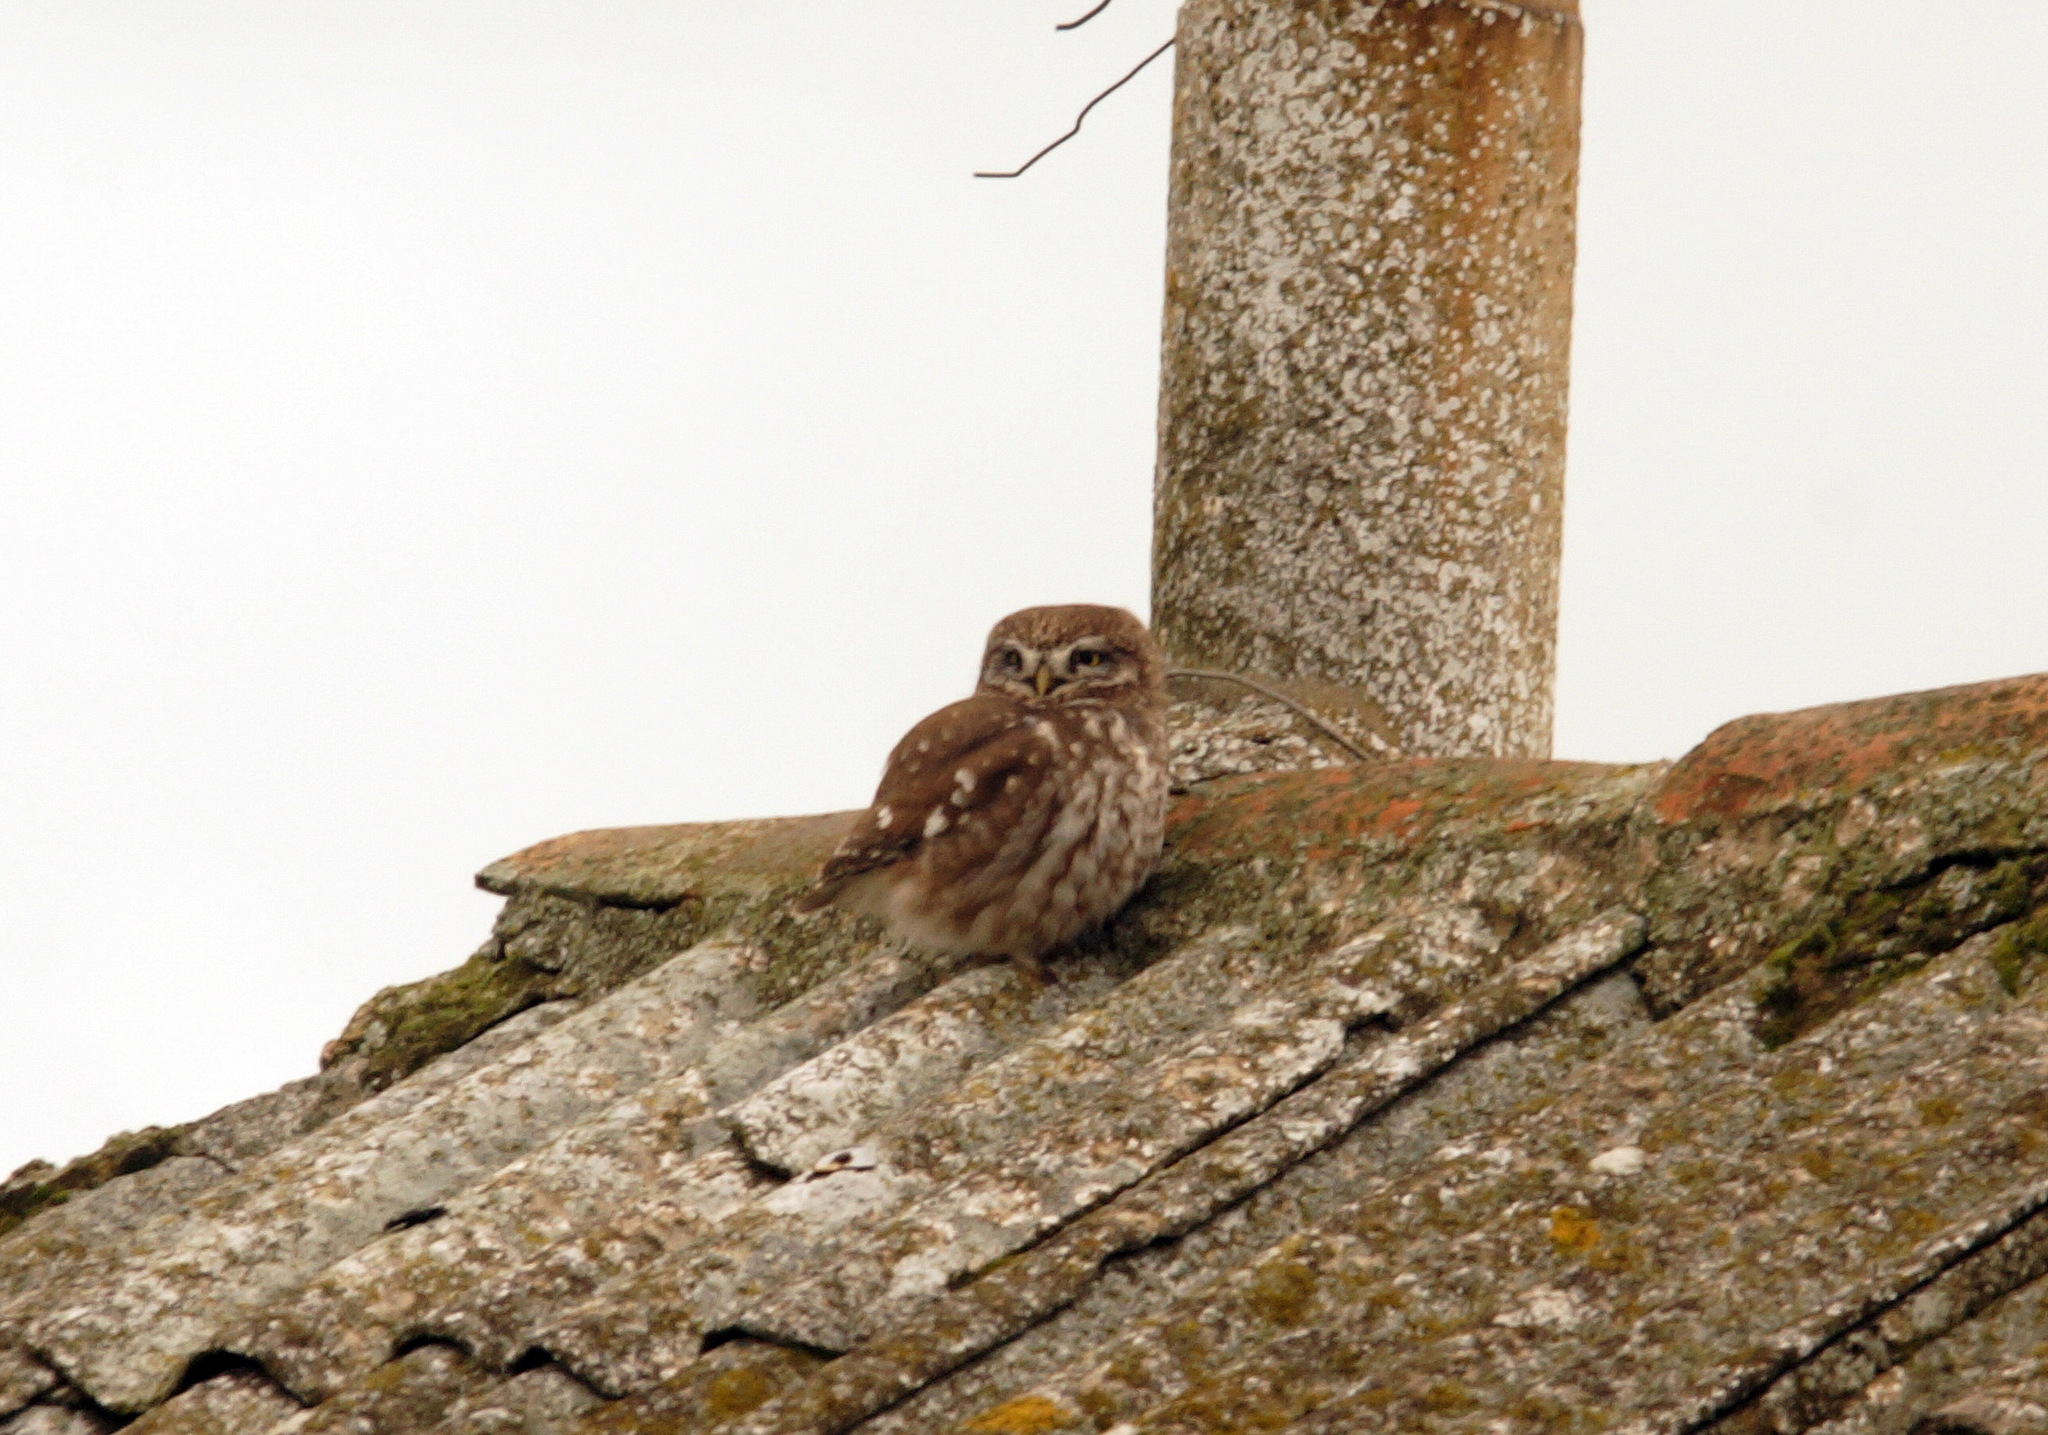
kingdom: Animalia
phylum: Chordata
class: Aves
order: Strigiformes
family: Strigidae
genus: Athene
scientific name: Athene noctua
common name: Little owl
